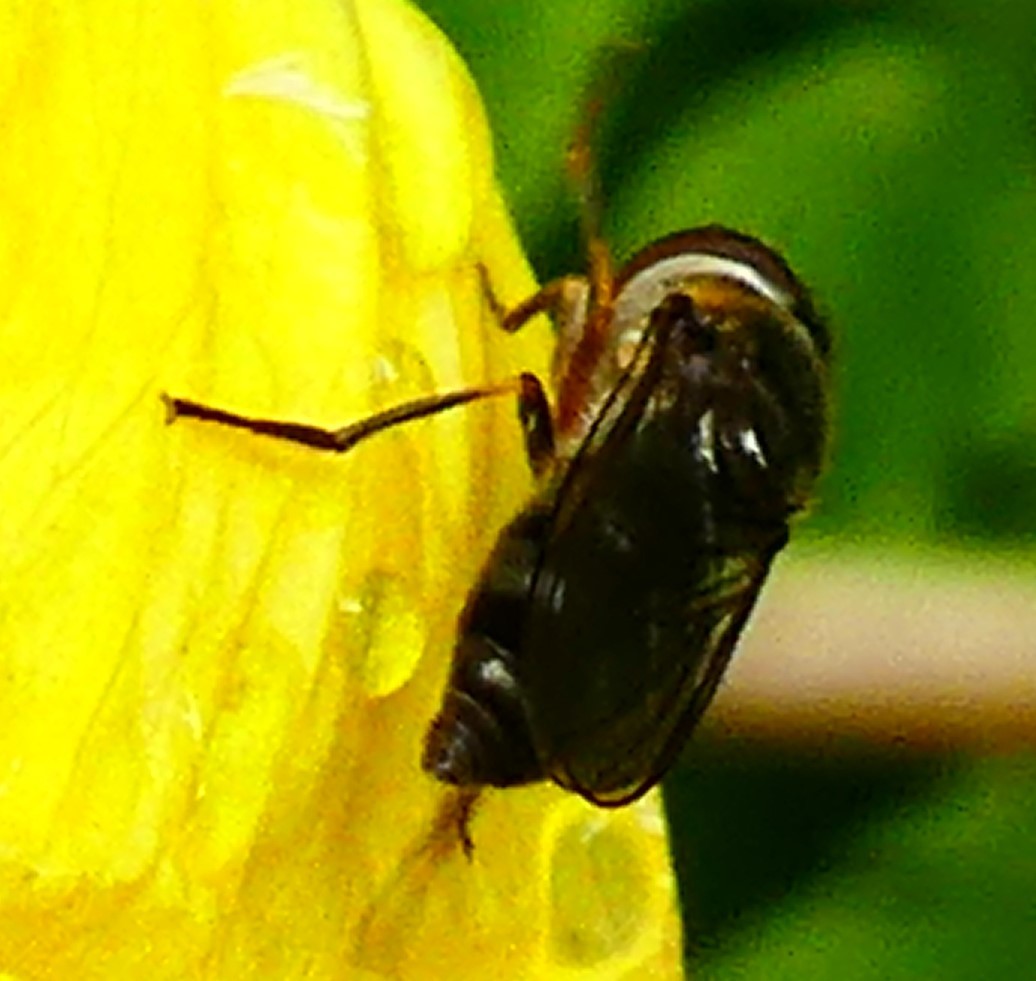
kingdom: Animalia
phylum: Arthropoda
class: Insecta
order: Diptera
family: Syrphidae
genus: Platycheirus
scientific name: Platycheirus albimanus
